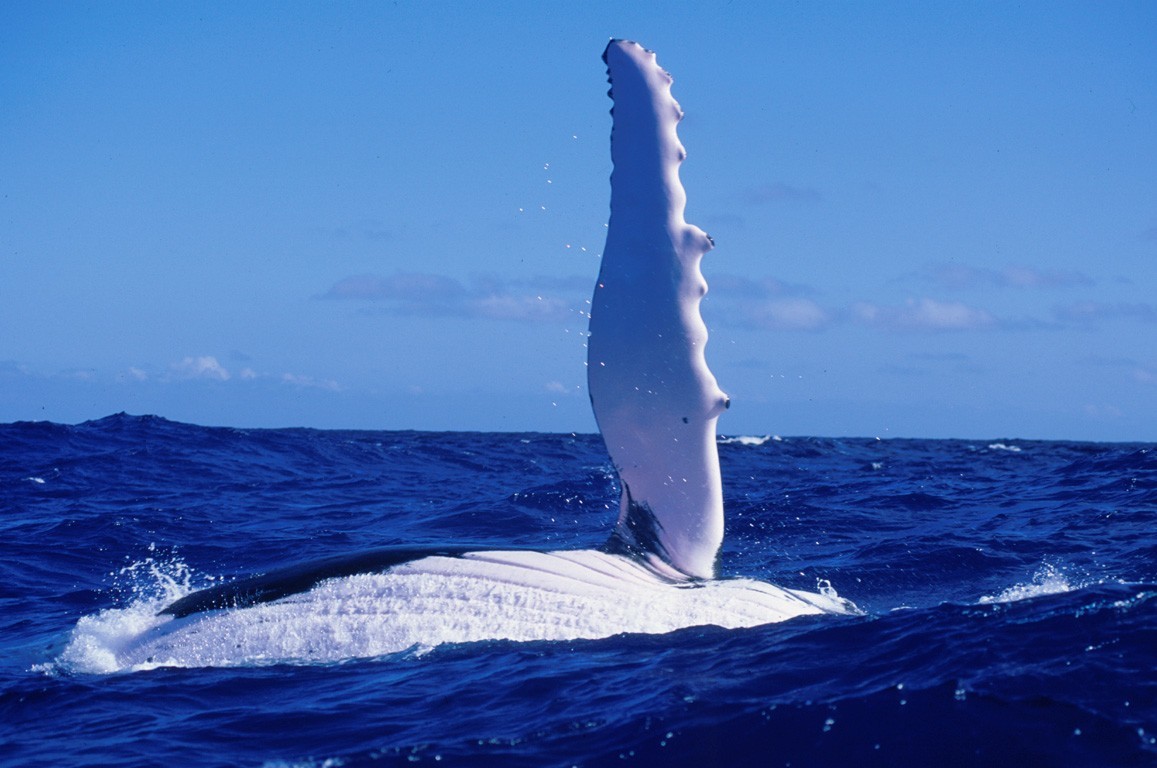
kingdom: Animalia
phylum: Chordata
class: Mammalia
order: Cetacea
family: Balaenopteridae
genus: Megaptera
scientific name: Megaptera novaeangliae
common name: Humpback whale
